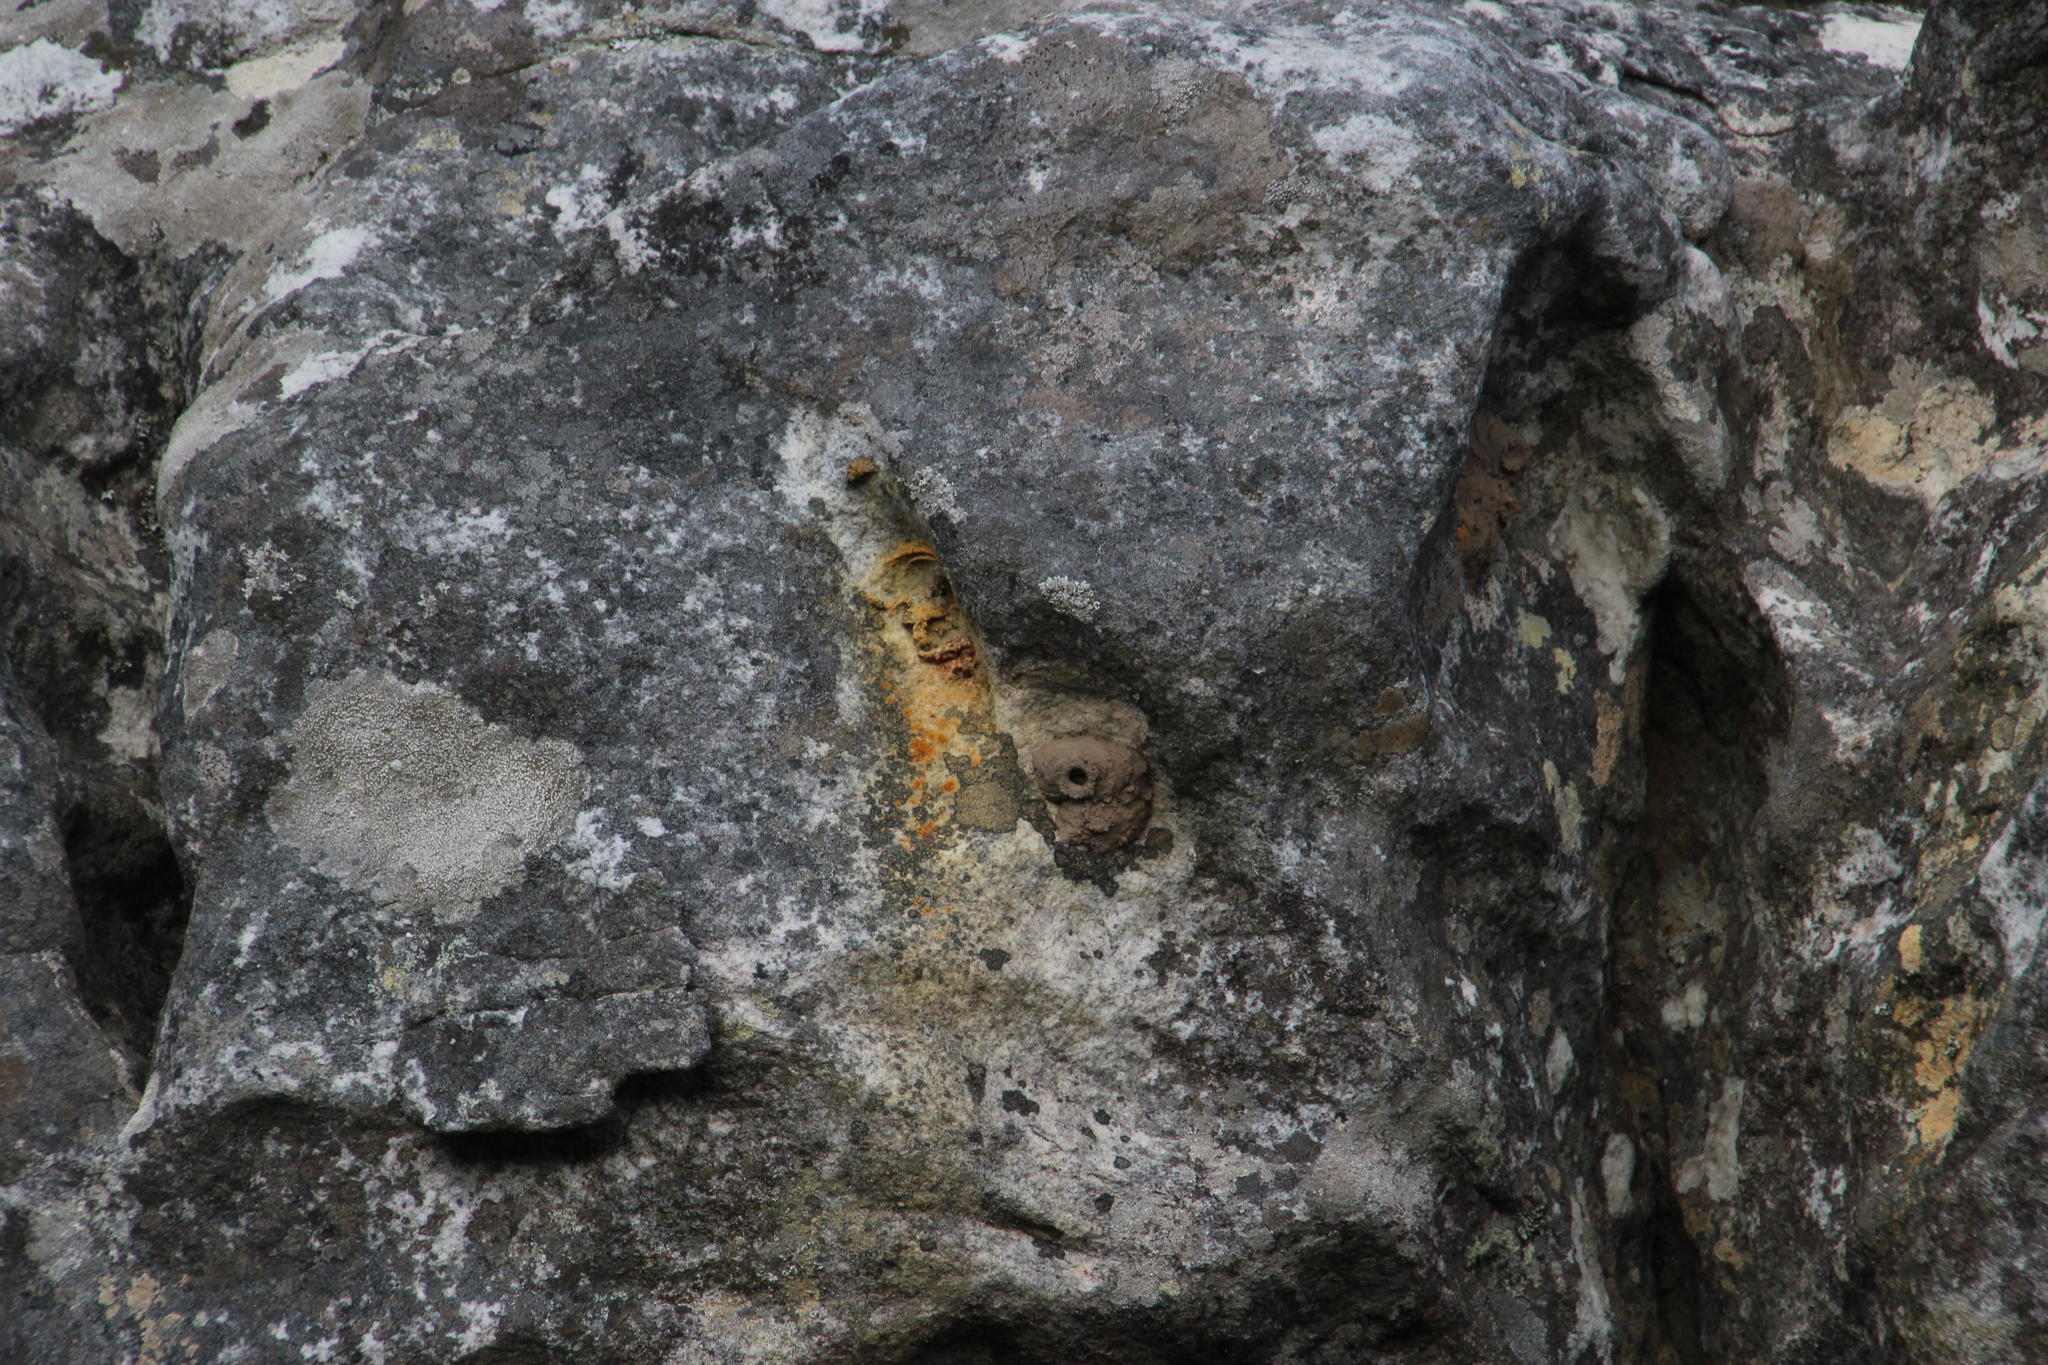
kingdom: Animalia
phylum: Arthropoda
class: Insecta
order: Hymenoptera
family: Eumenidae
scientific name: Eumenidae
